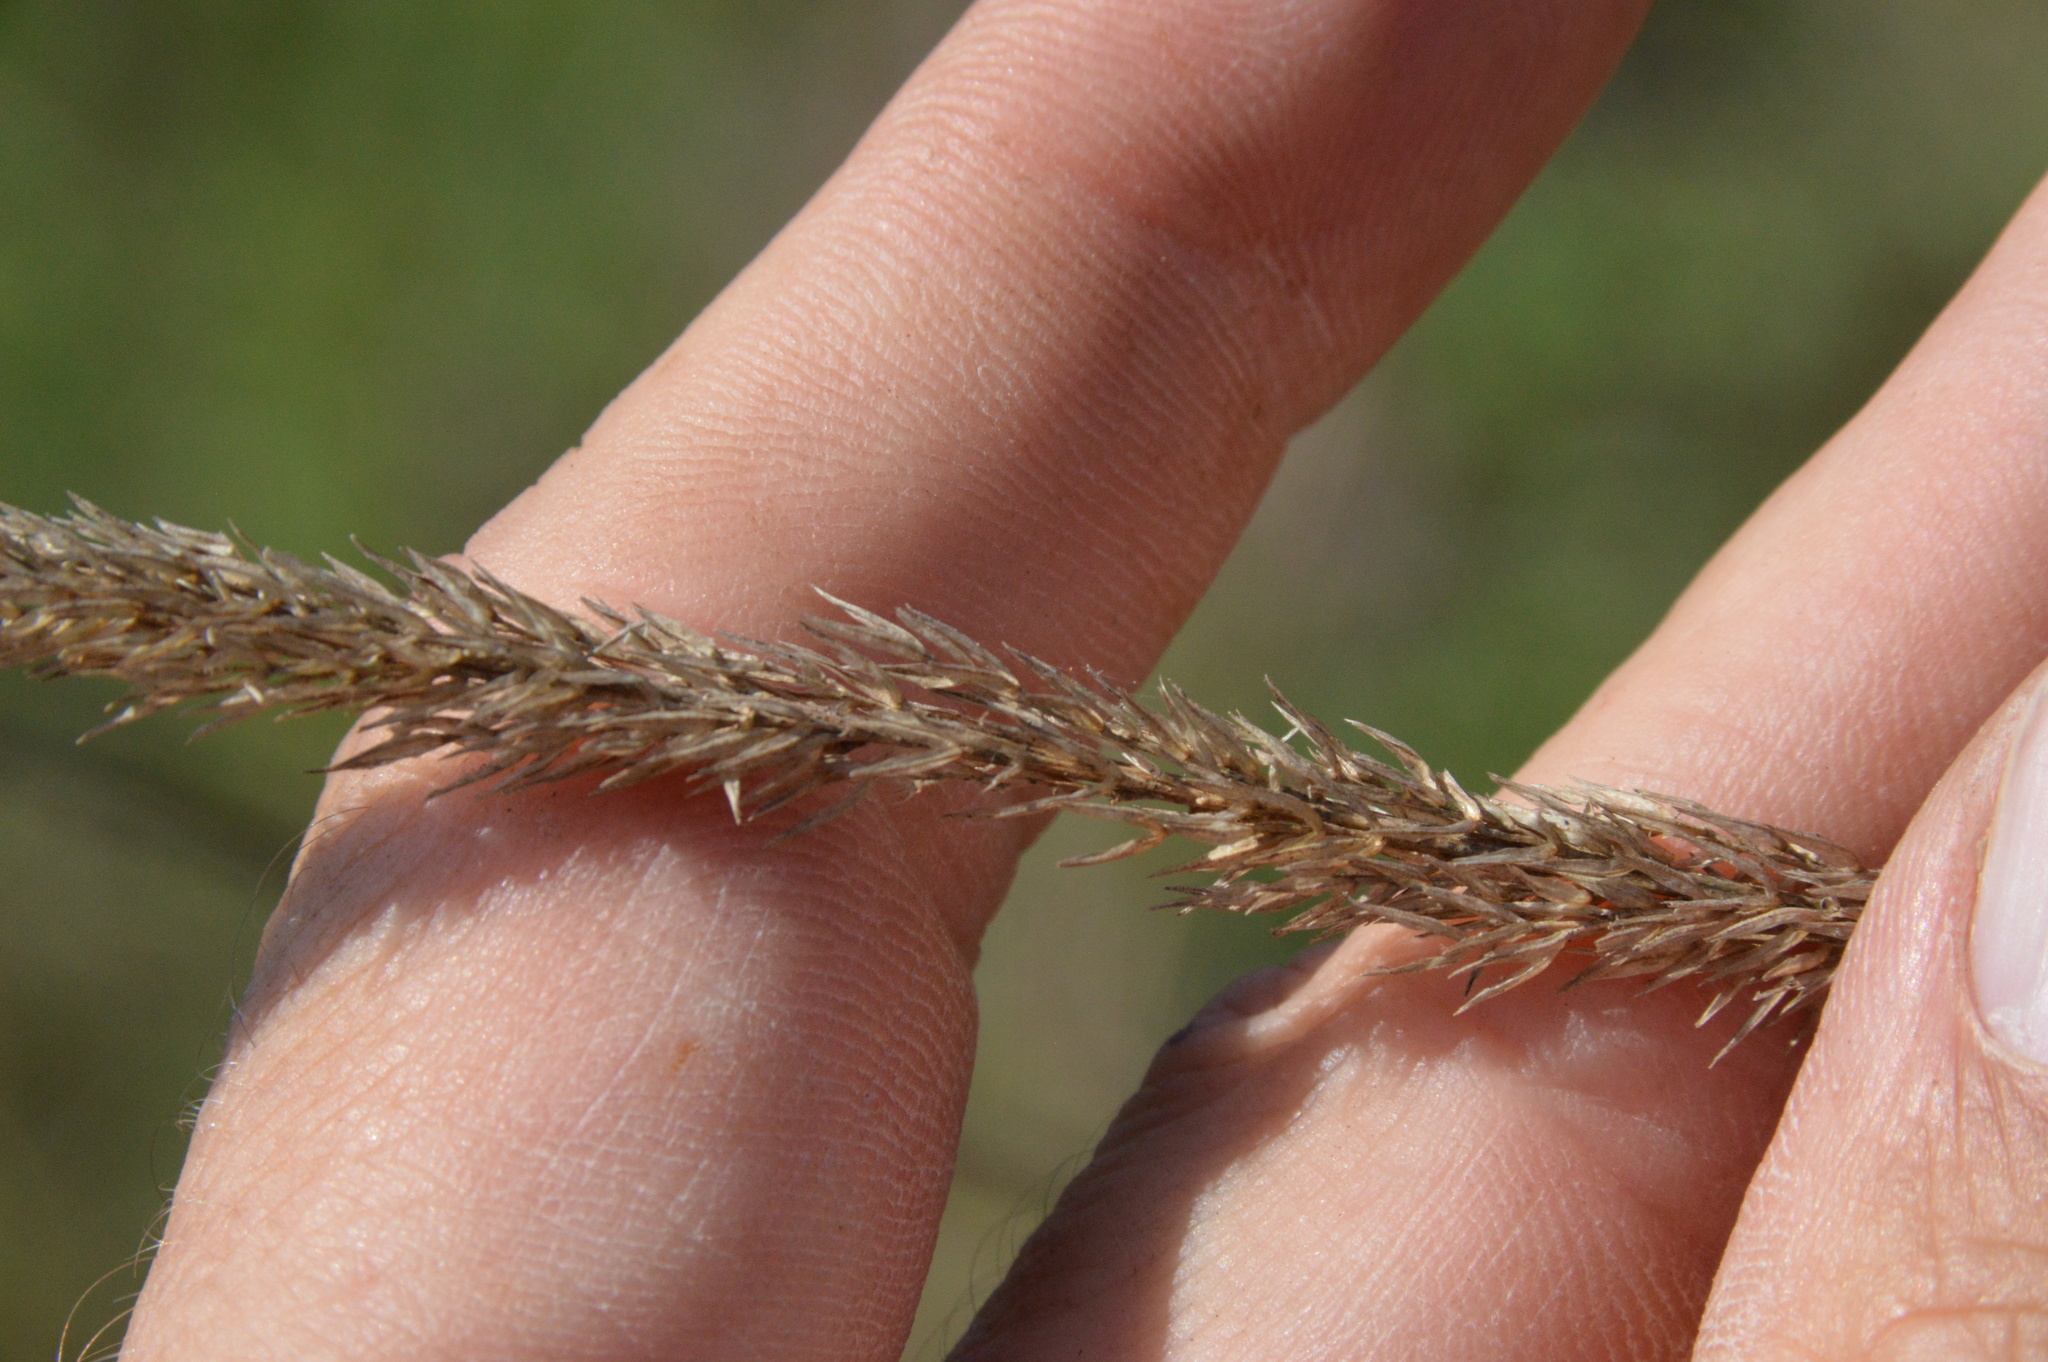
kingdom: Plantae
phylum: Tracheophyta
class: Liliopsida
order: Poales
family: Poaceae
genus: Tridens
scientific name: Tridens strictus
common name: Long-spike tridens
